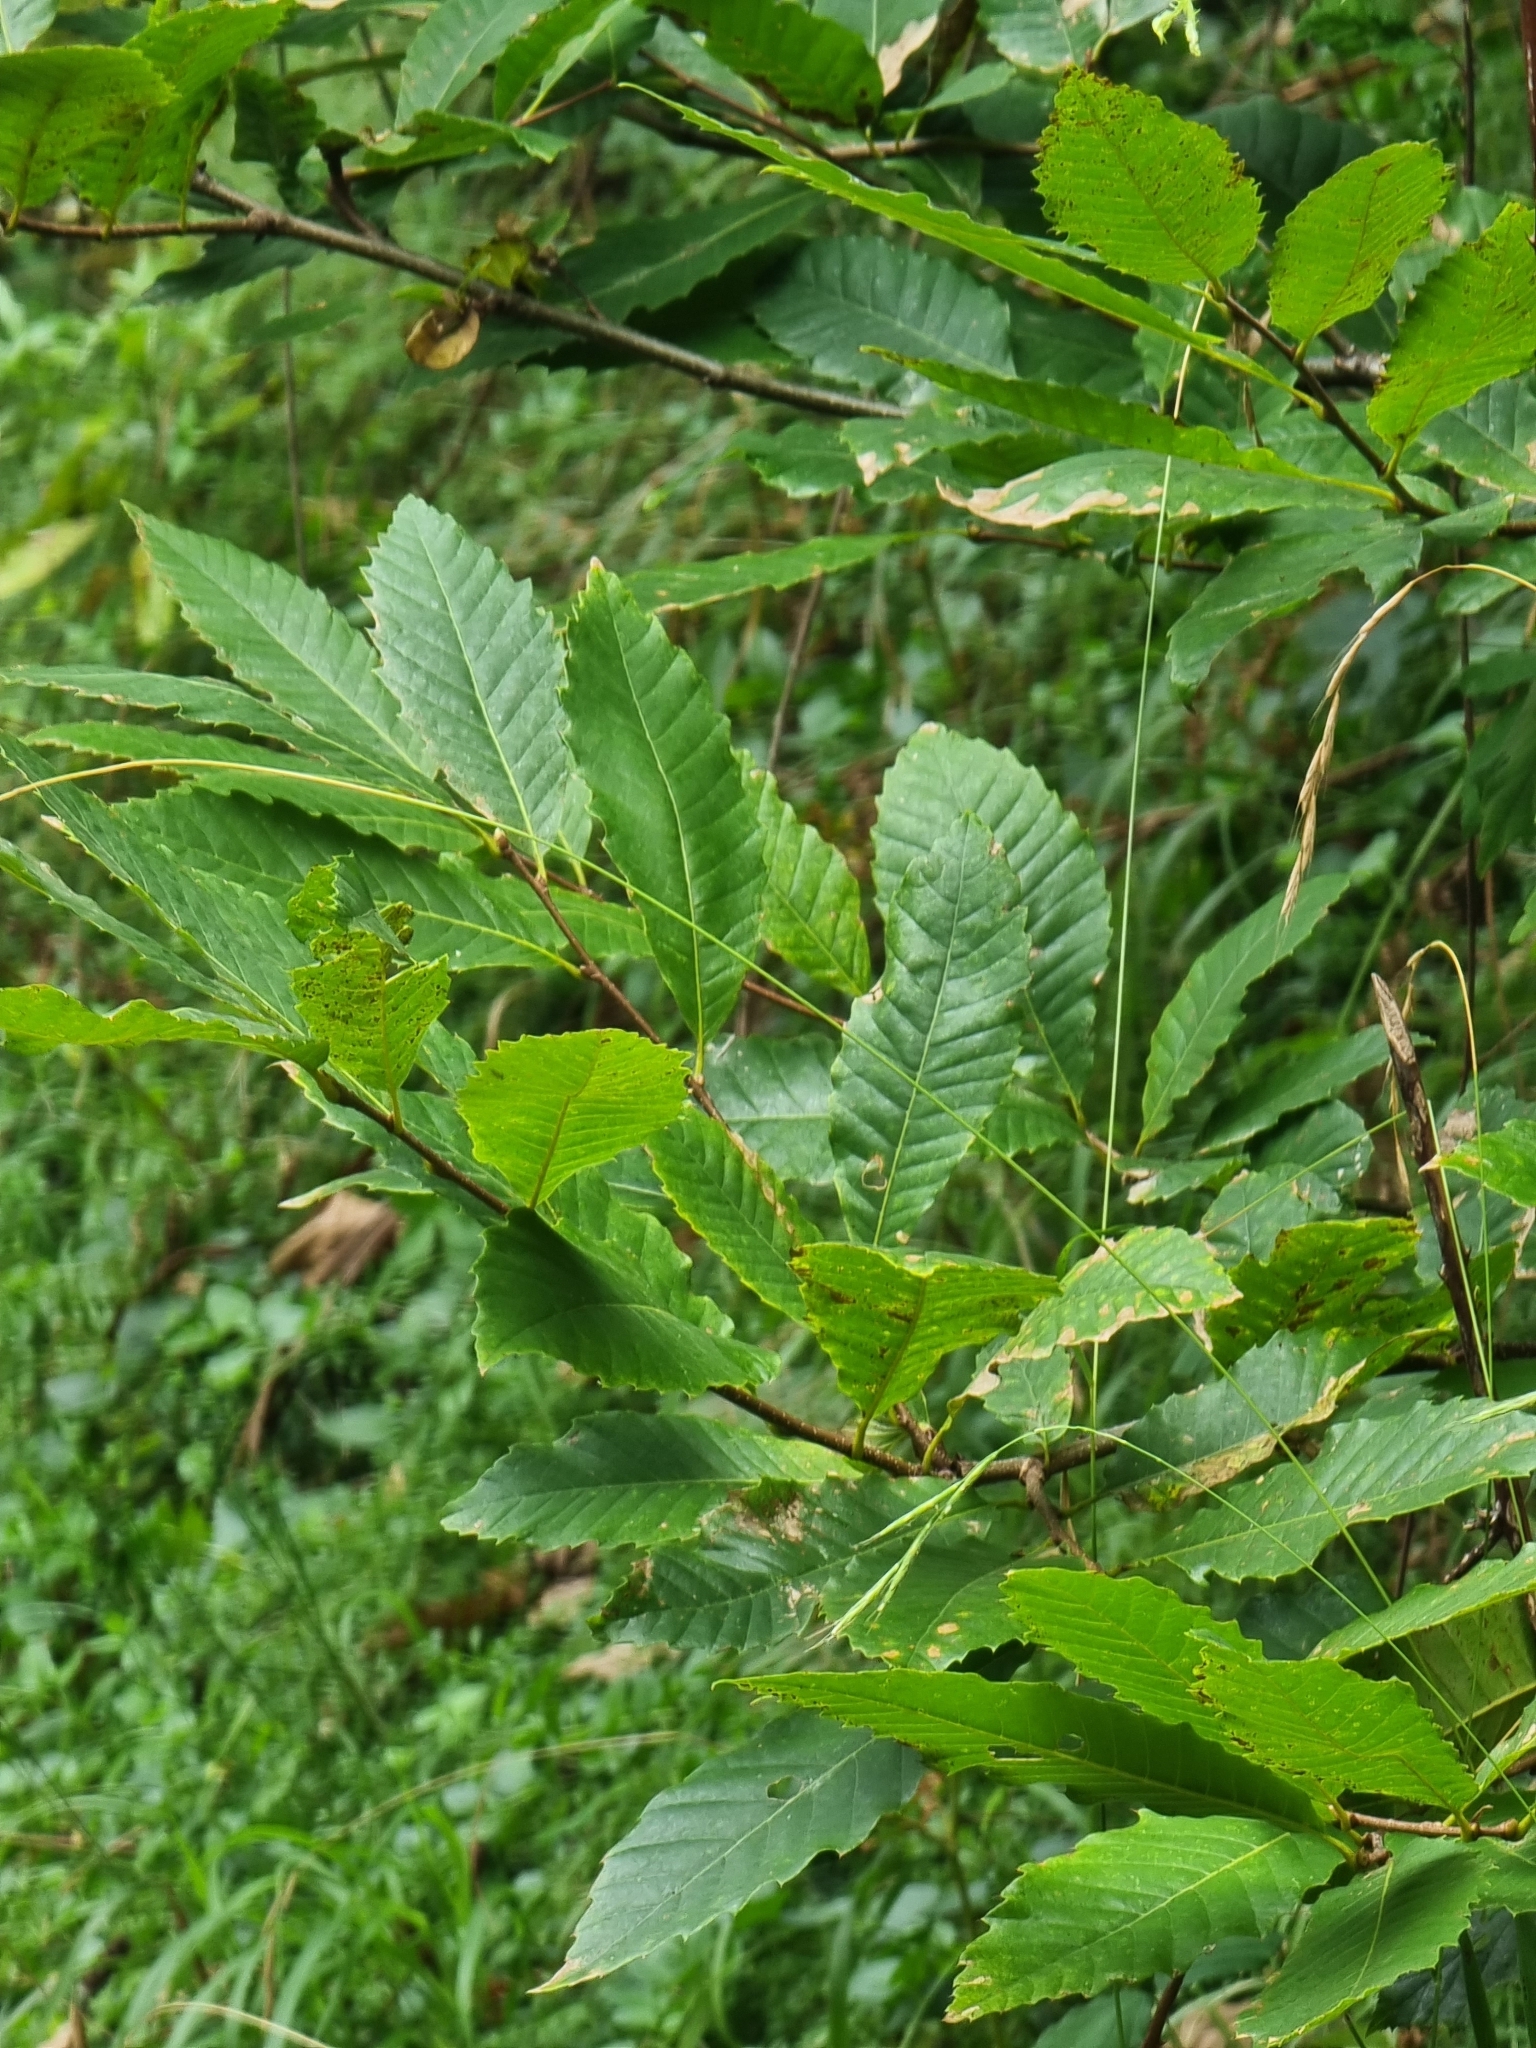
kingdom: Plantae
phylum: Tracheophyta
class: Magnoliopsida
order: Fagales
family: Fagaceae
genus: Castanea
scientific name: Castanea sativa
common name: Sweet chestnut
